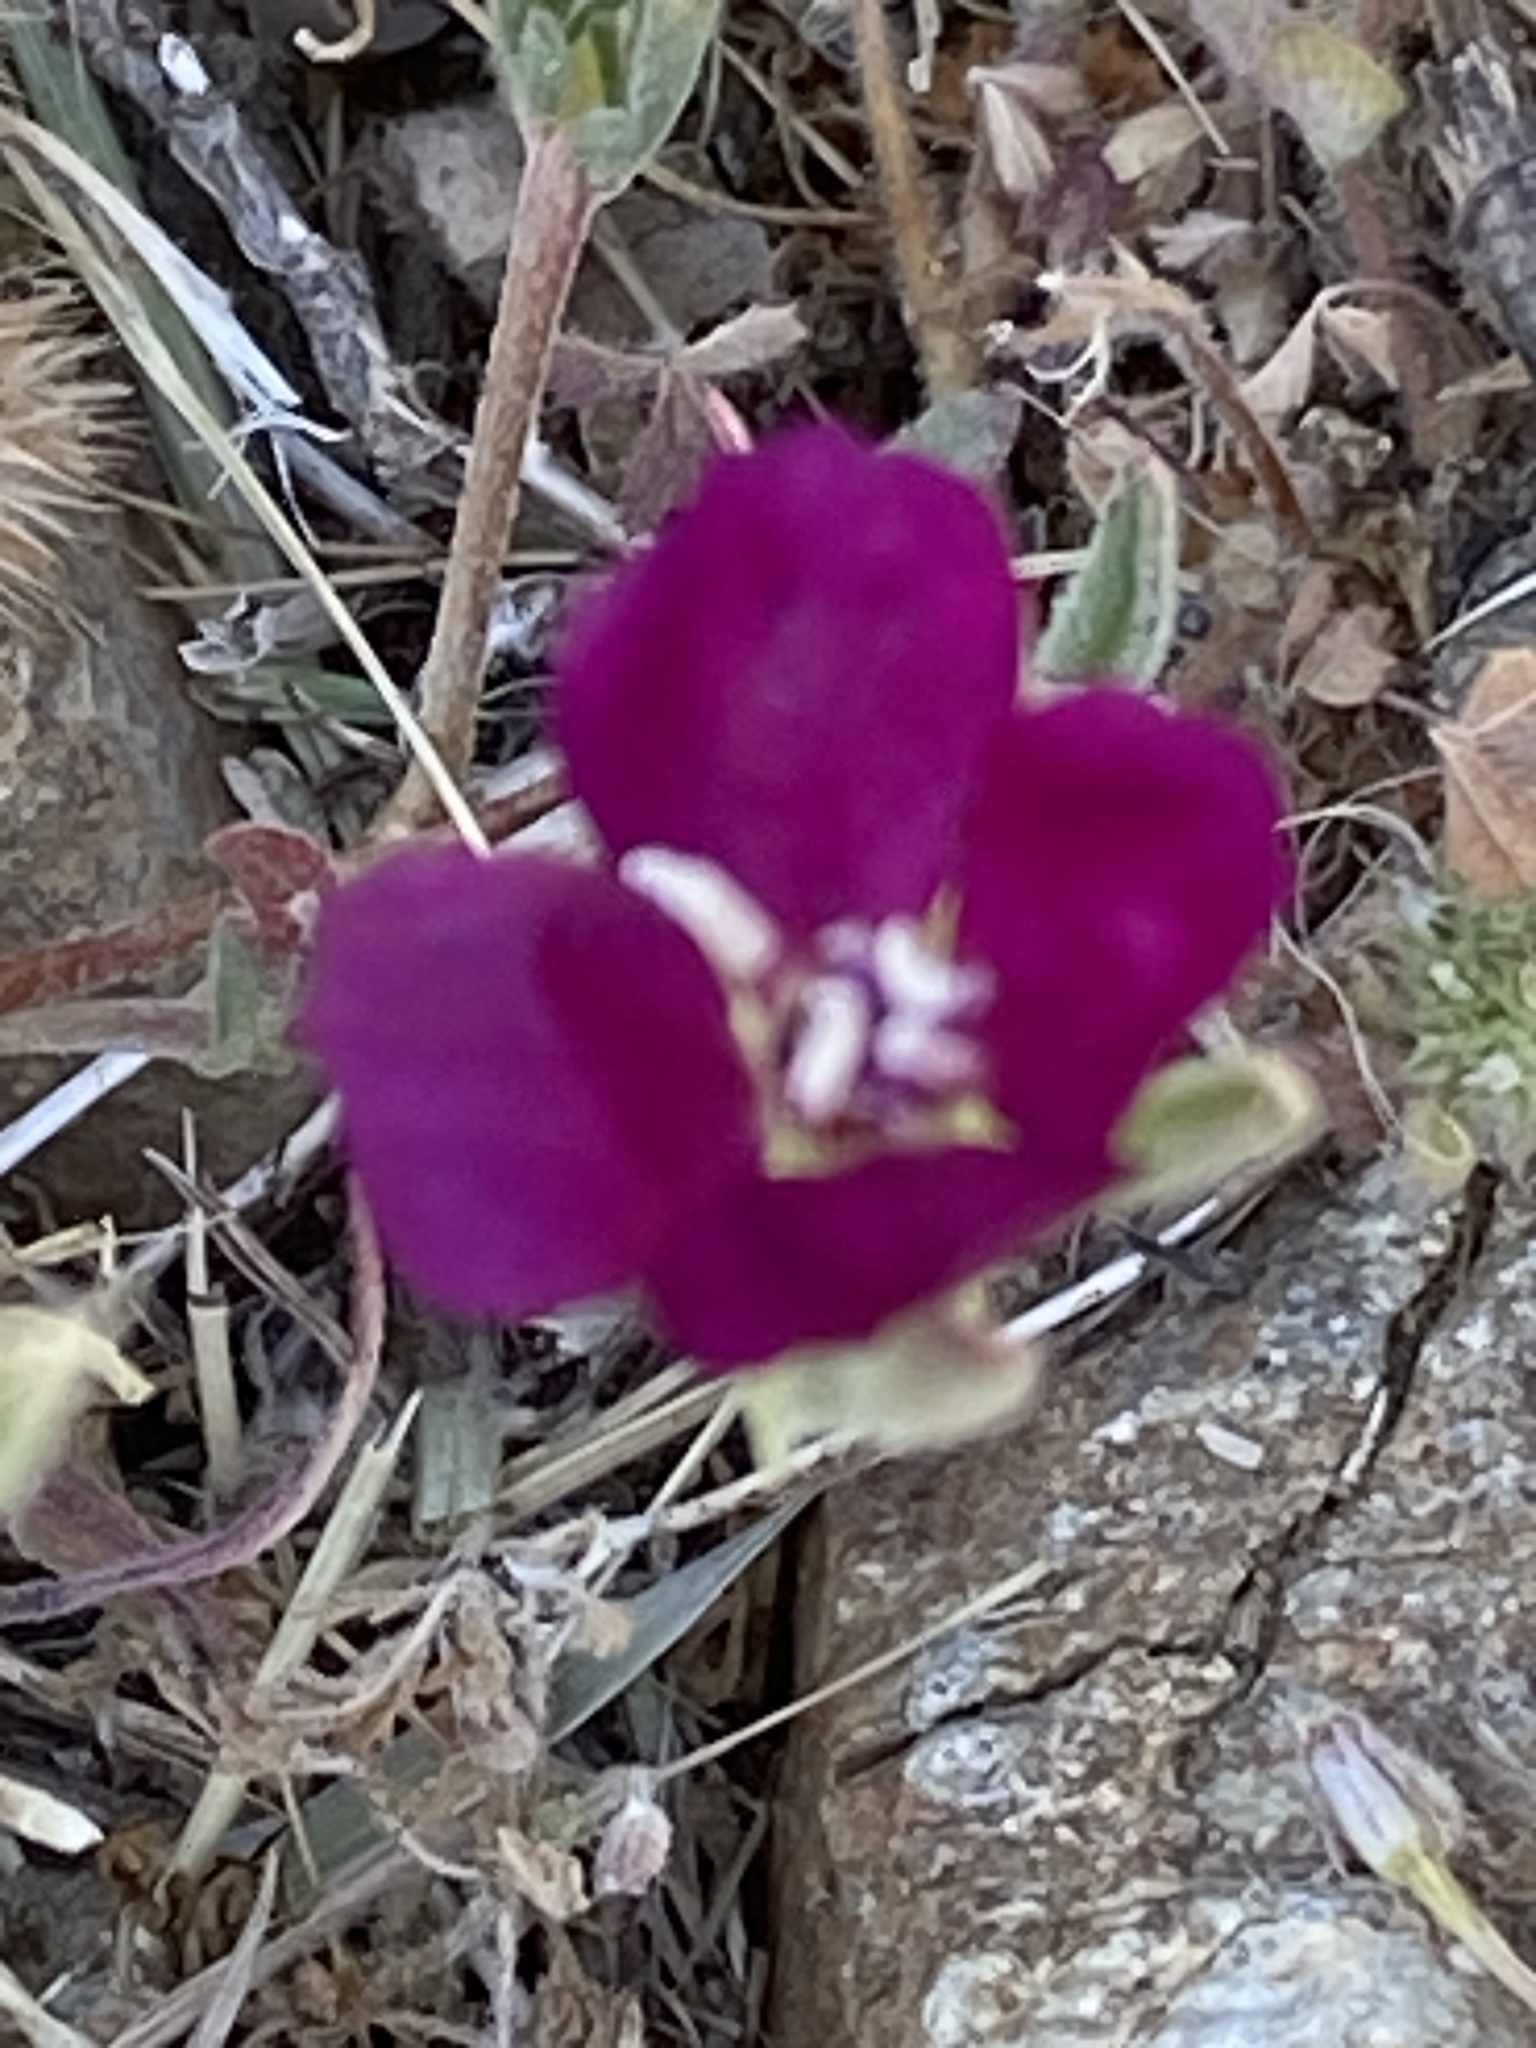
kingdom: Plantae
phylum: Tracheophyta
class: Magnoliopsida
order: Myrtales
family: Onagraceae
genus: Clarkia
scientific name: Clarkia purpurea
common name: Purple clarkia
